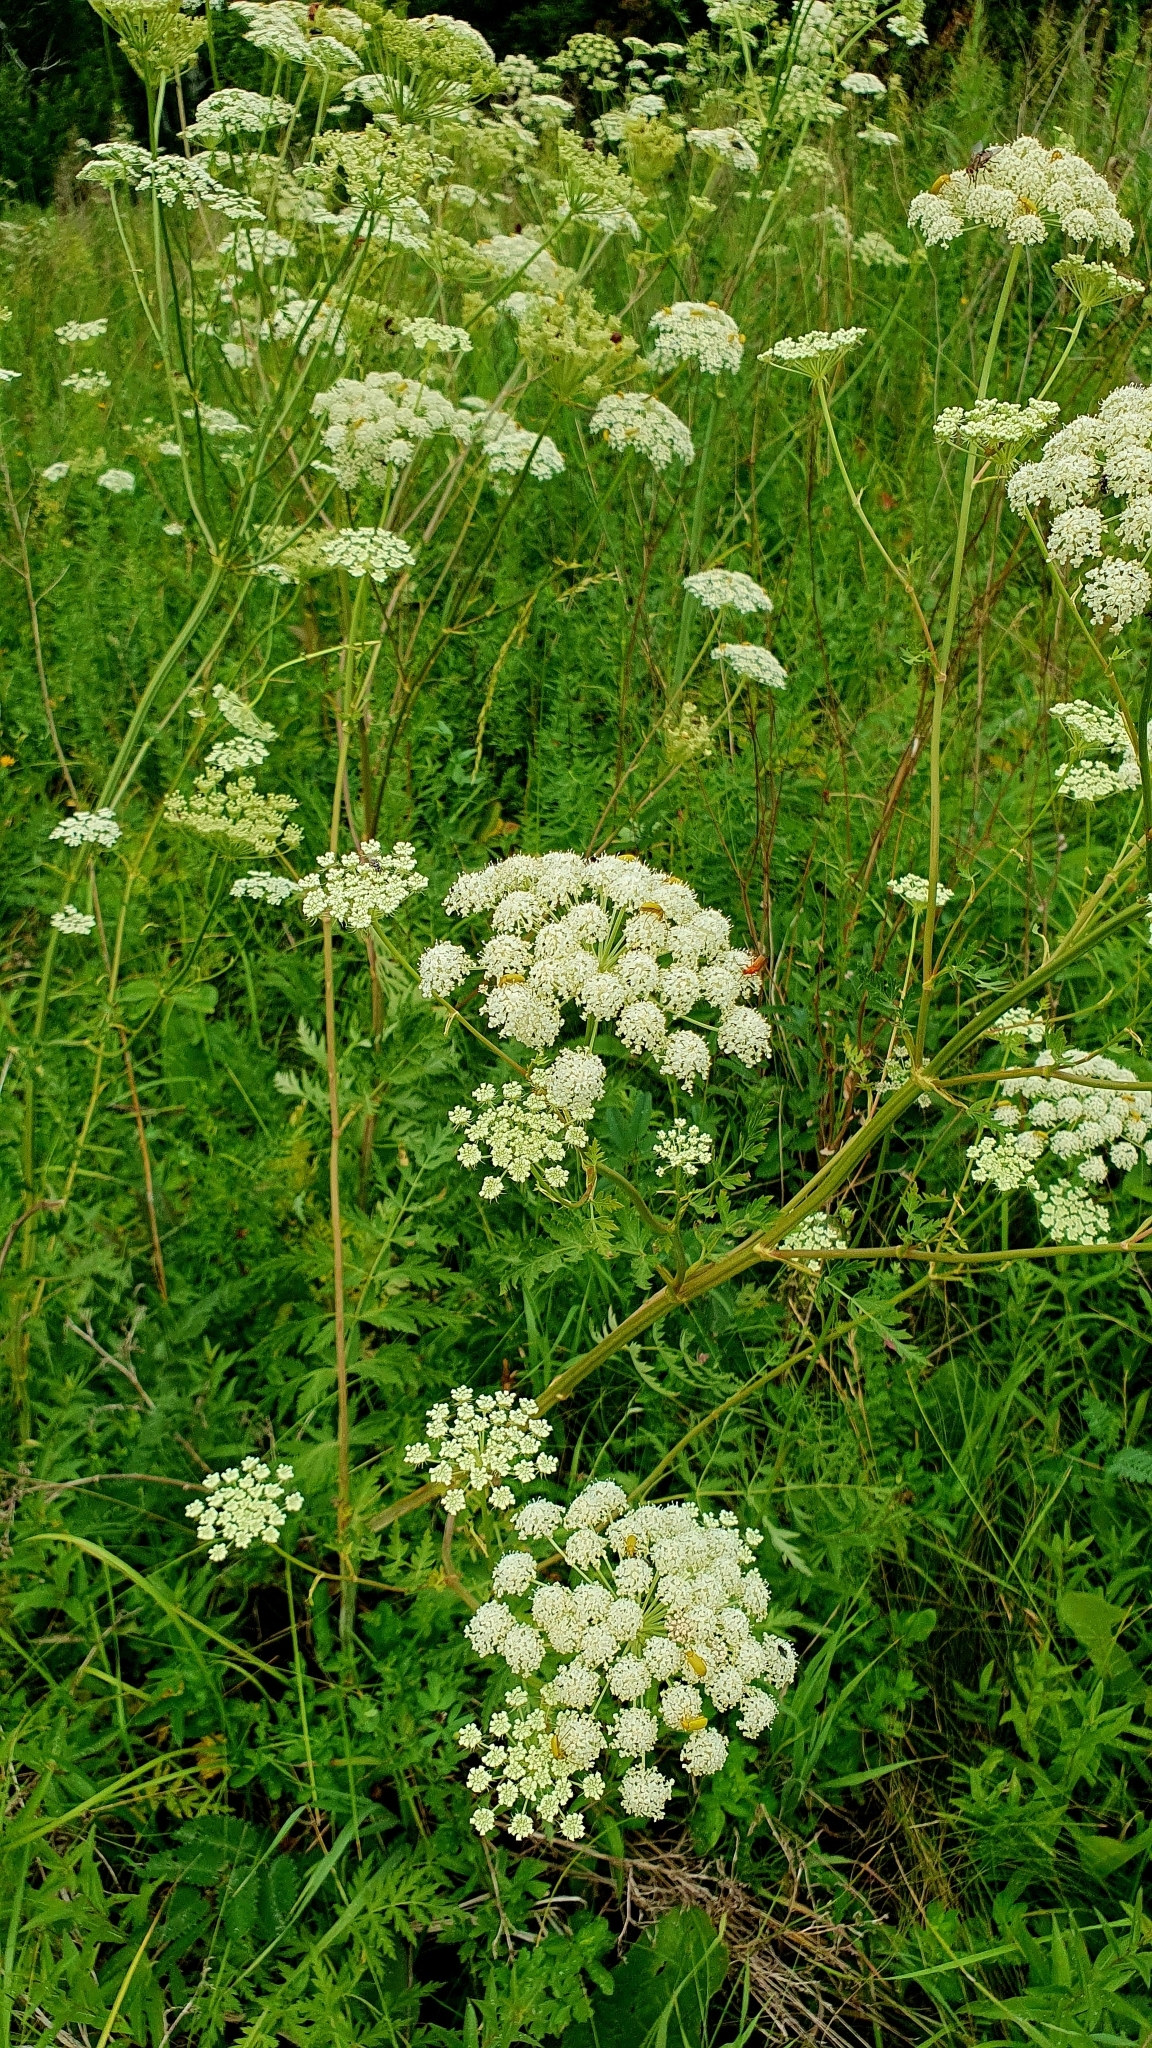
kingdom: Plantae
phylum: Tracheophyta
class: Magnoliopsida
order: Apiales
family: Apiaceae
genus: Seseli
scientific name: Seseli libanotis
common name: Mooncarrot
